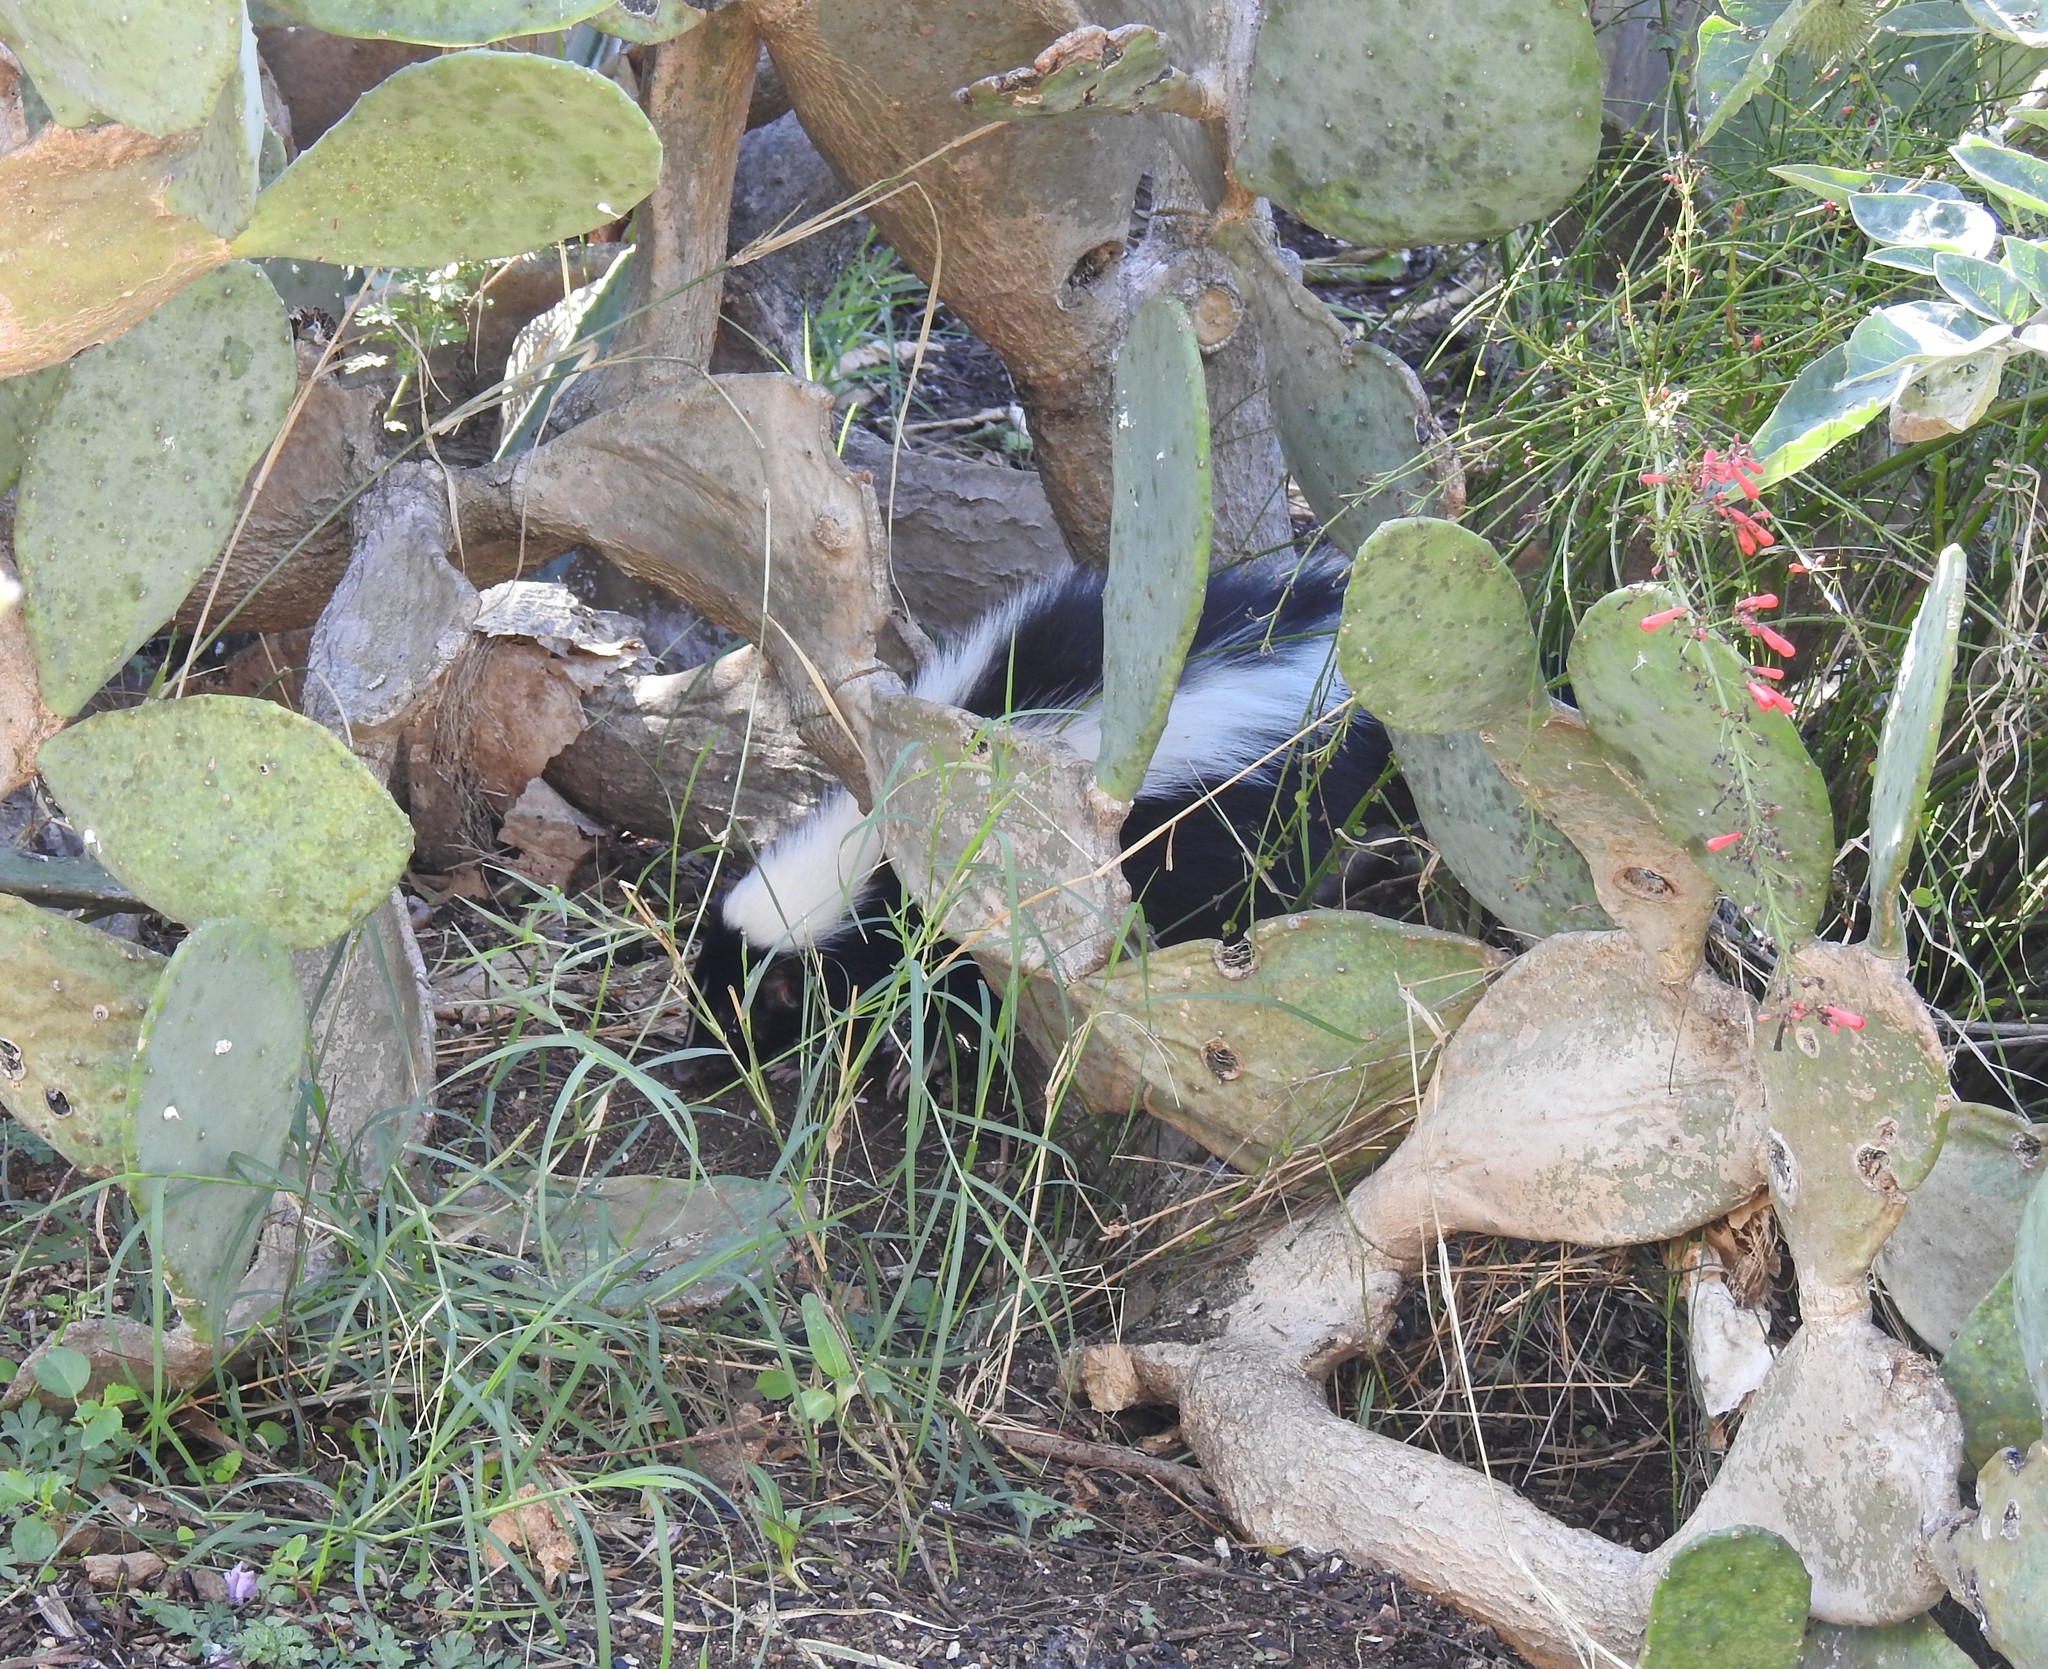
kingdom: Animalia
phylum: Chordata
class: Mammalia
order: Carnivora
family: Mephitidae
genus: Mephitis
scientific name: Mephitis mephitis
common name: Striped skunk
